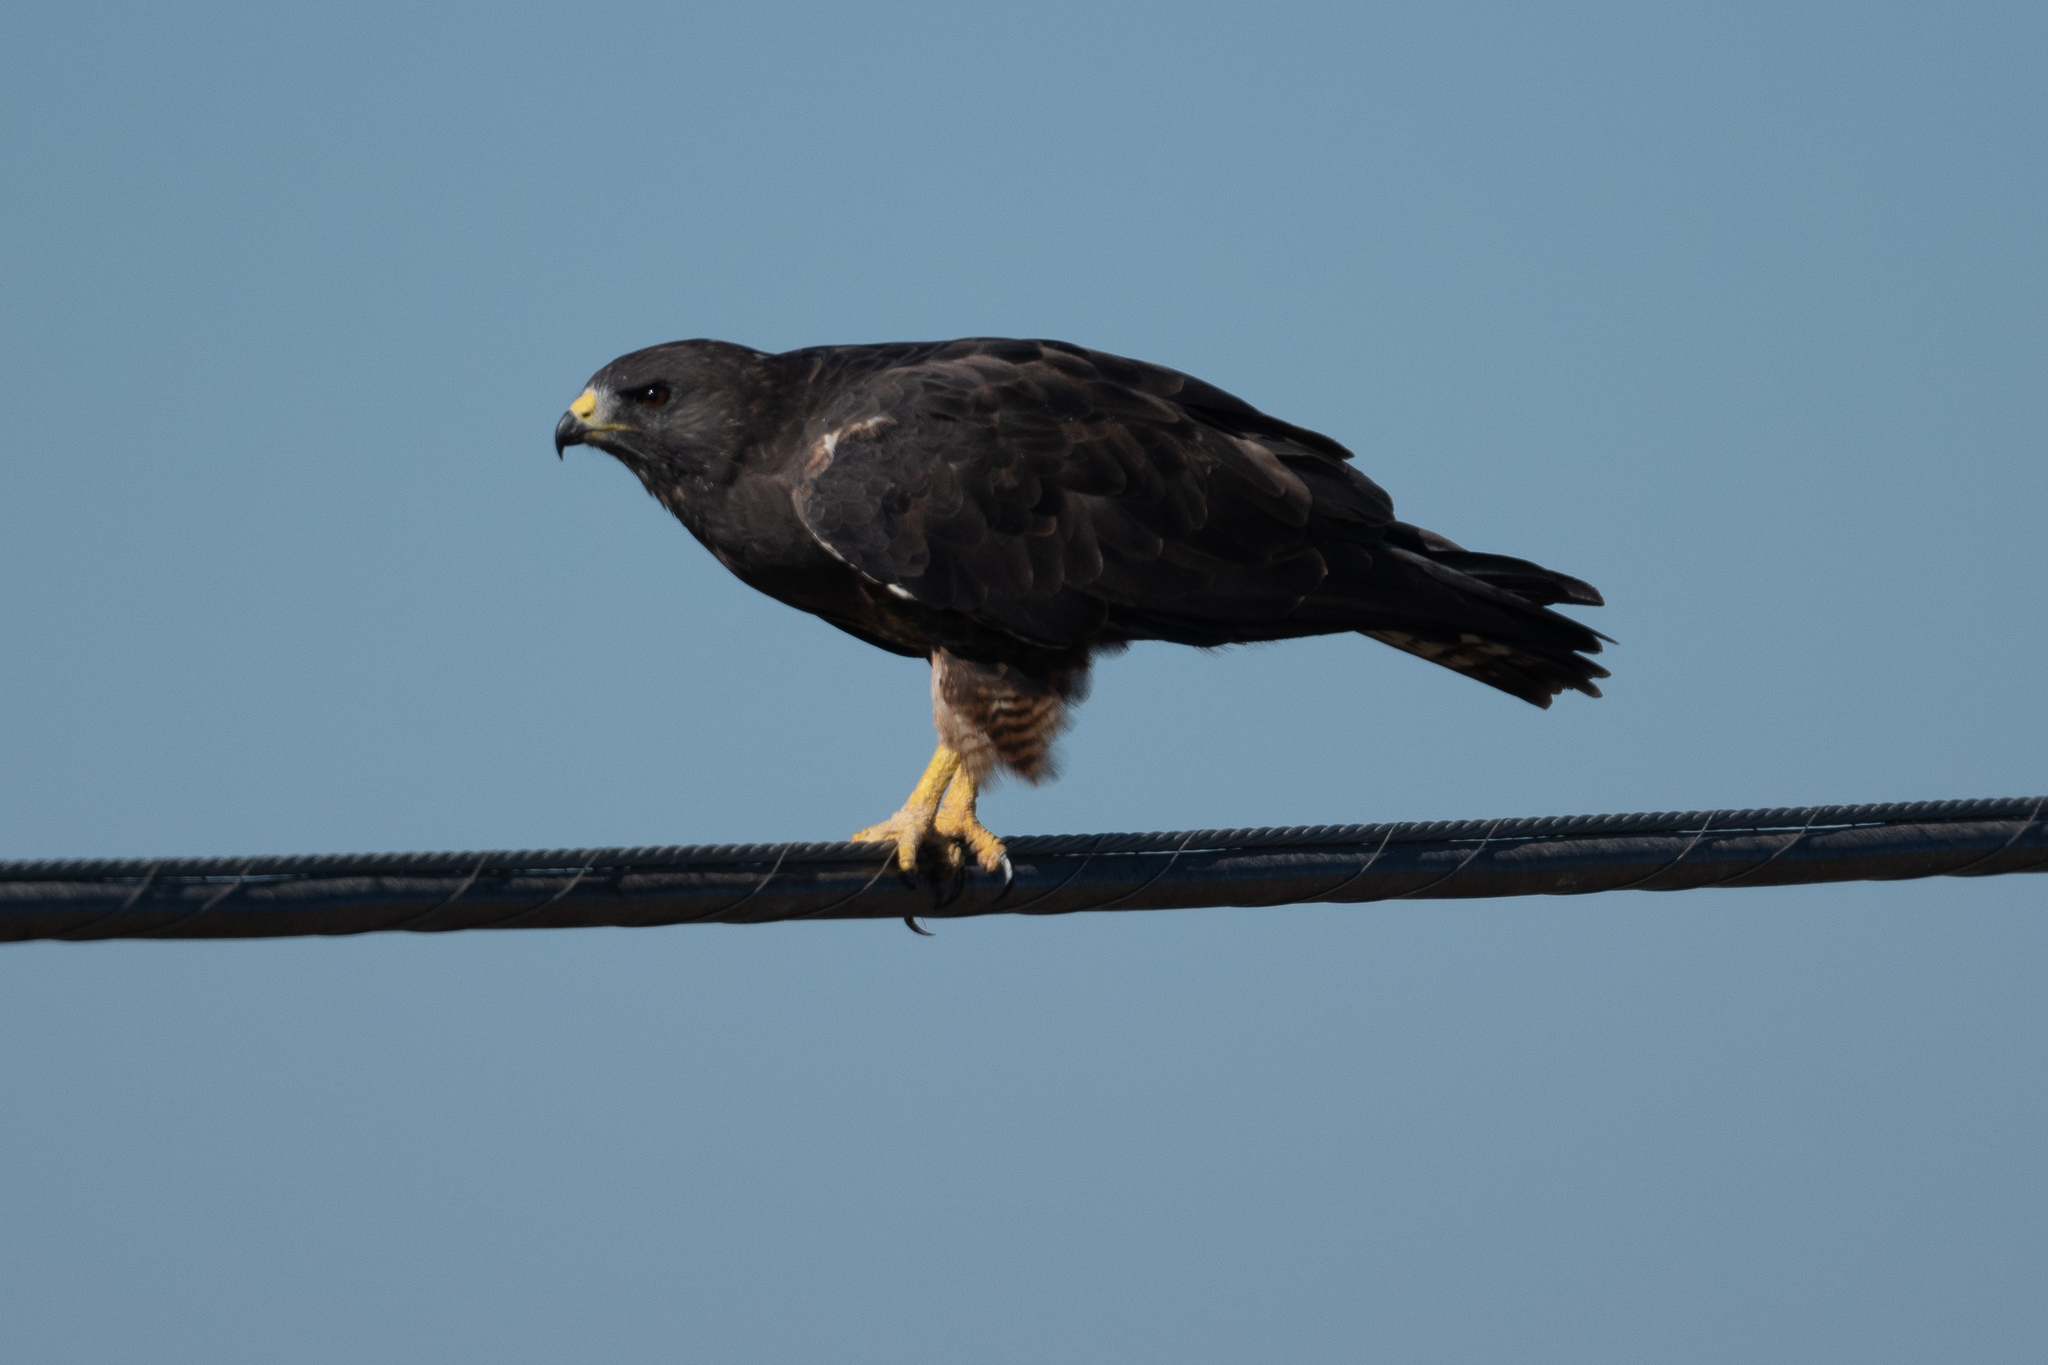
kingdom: Animalia
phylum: Chordata
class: Aves
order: Accipitriformes
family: Accipitridae
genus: Buteo
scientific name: Buteo swainsoni
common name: Swainson's hawk
